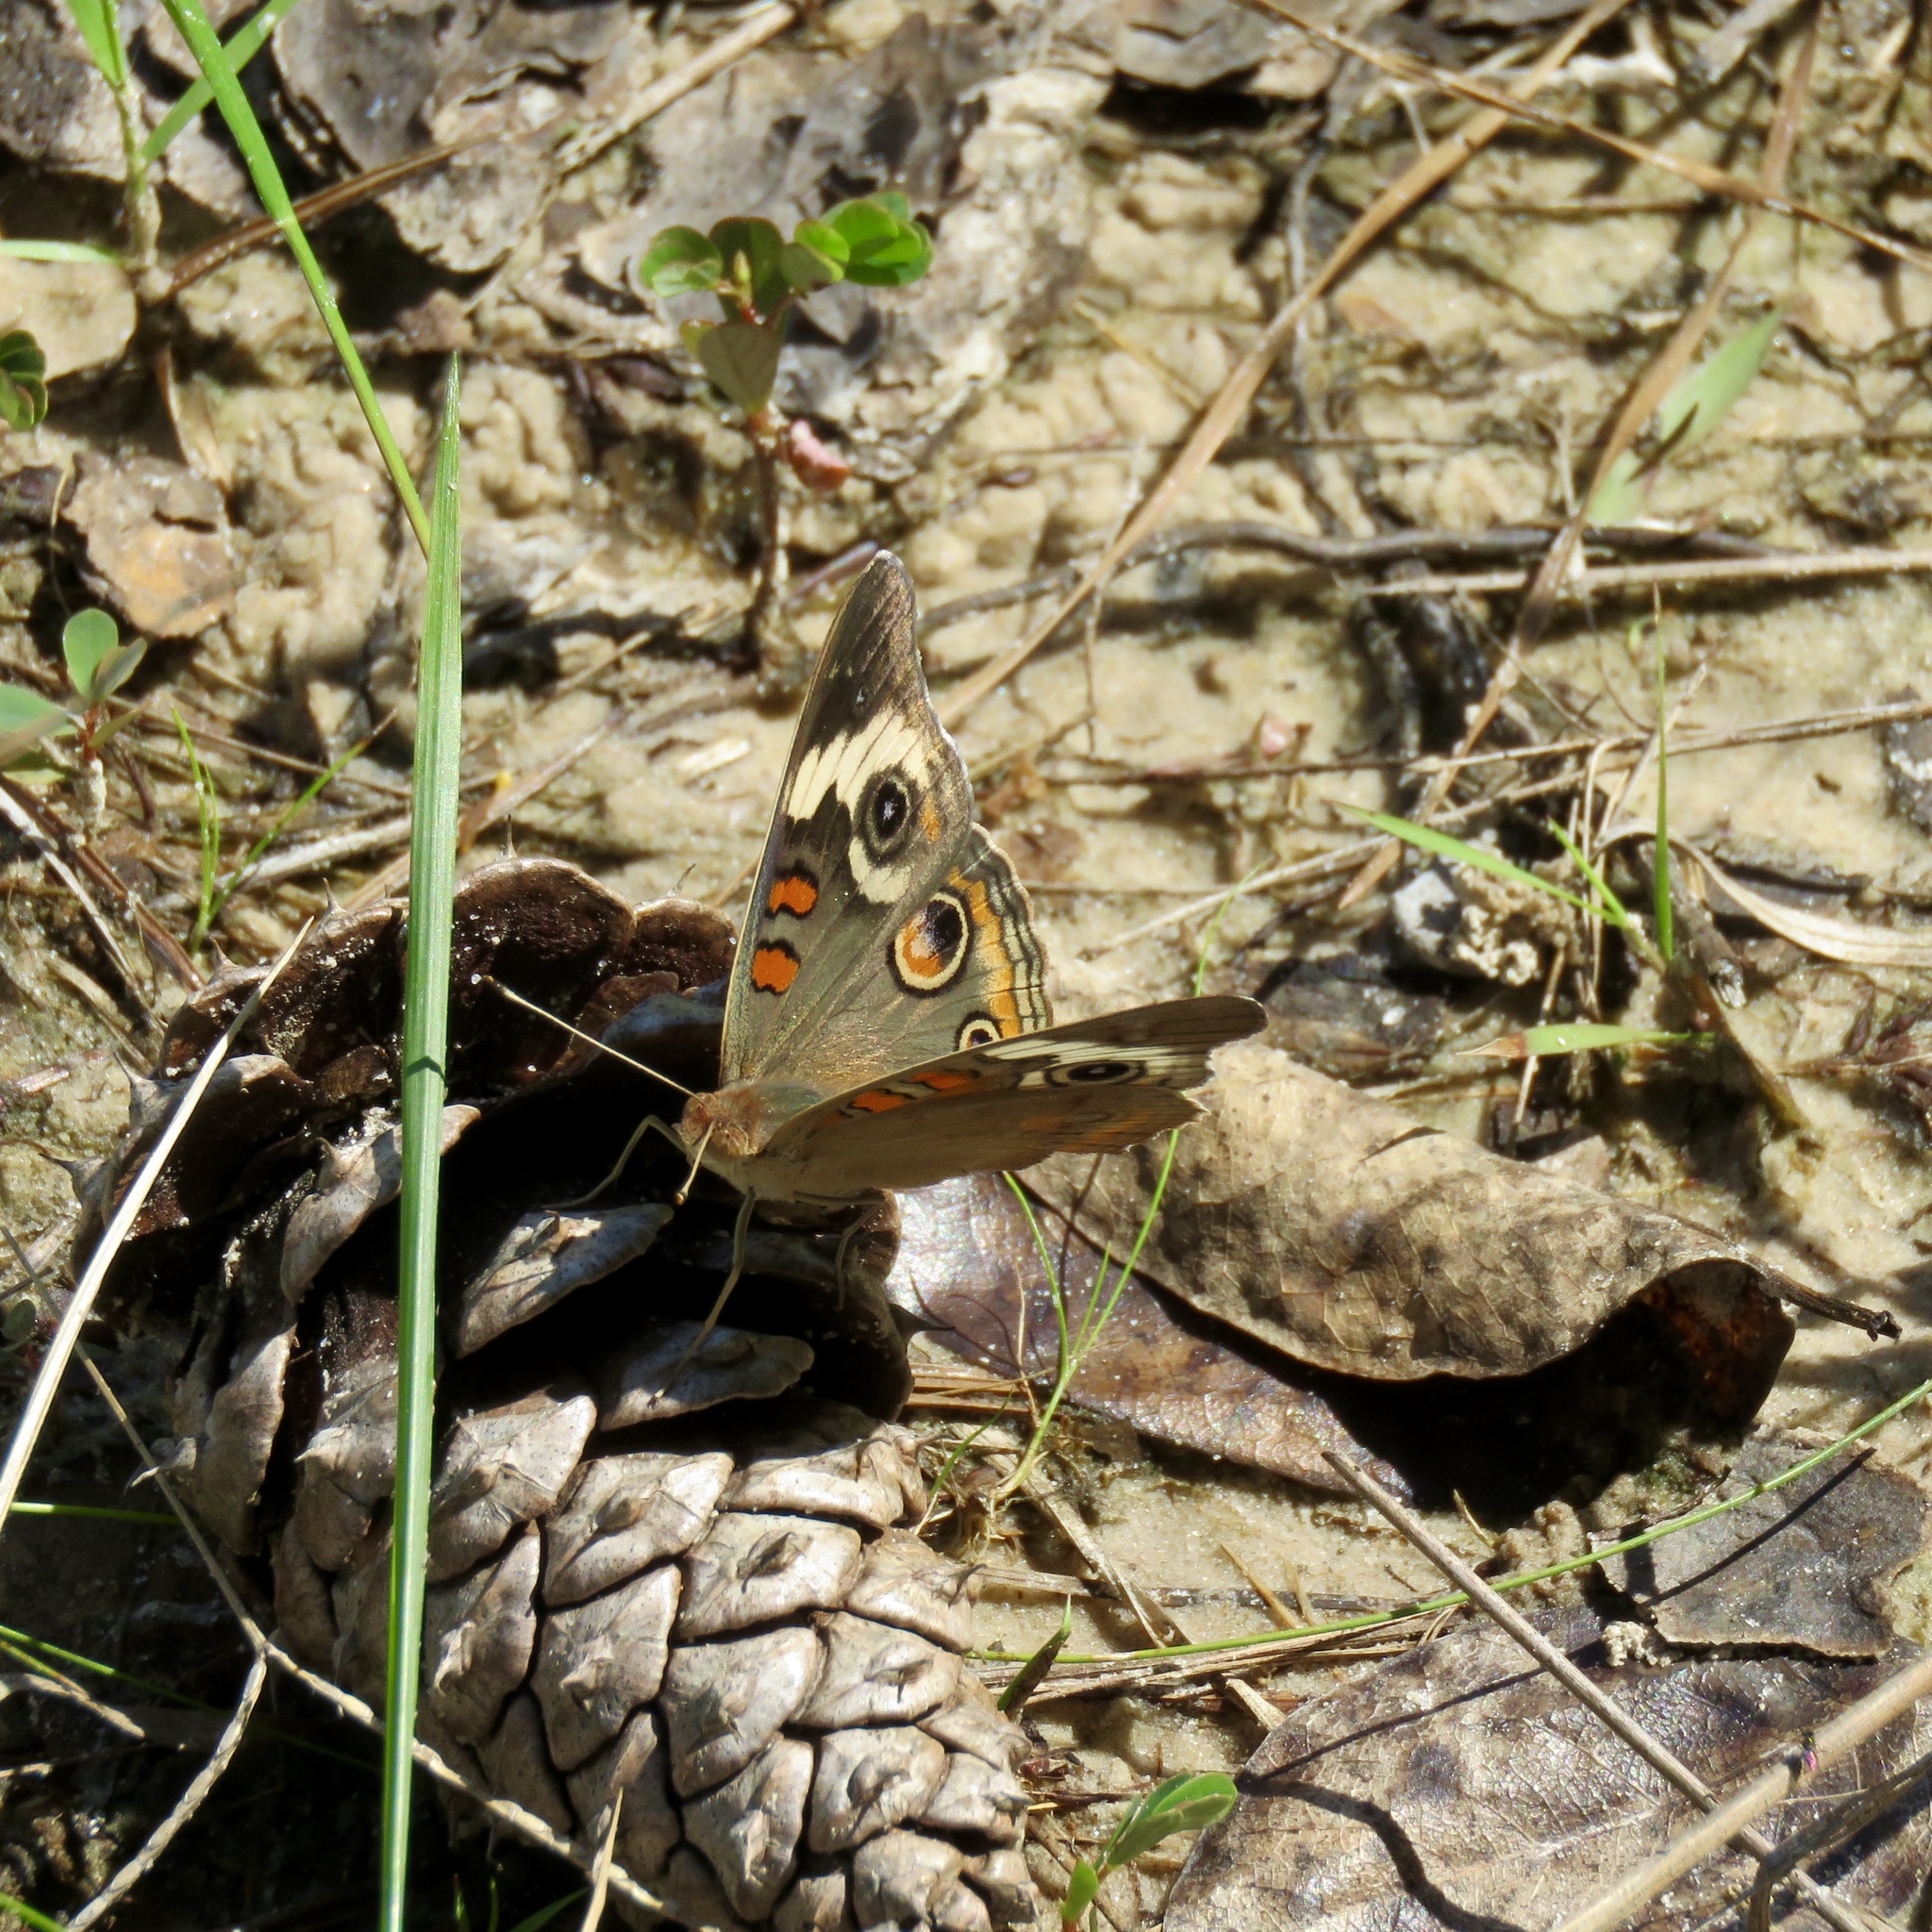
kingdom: Animalia
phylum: Arthropoda
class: Insecta
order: Lepidoptera
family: Nymphalidae
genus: Junonia
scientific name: Junonia coenia
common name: Common buckeye
